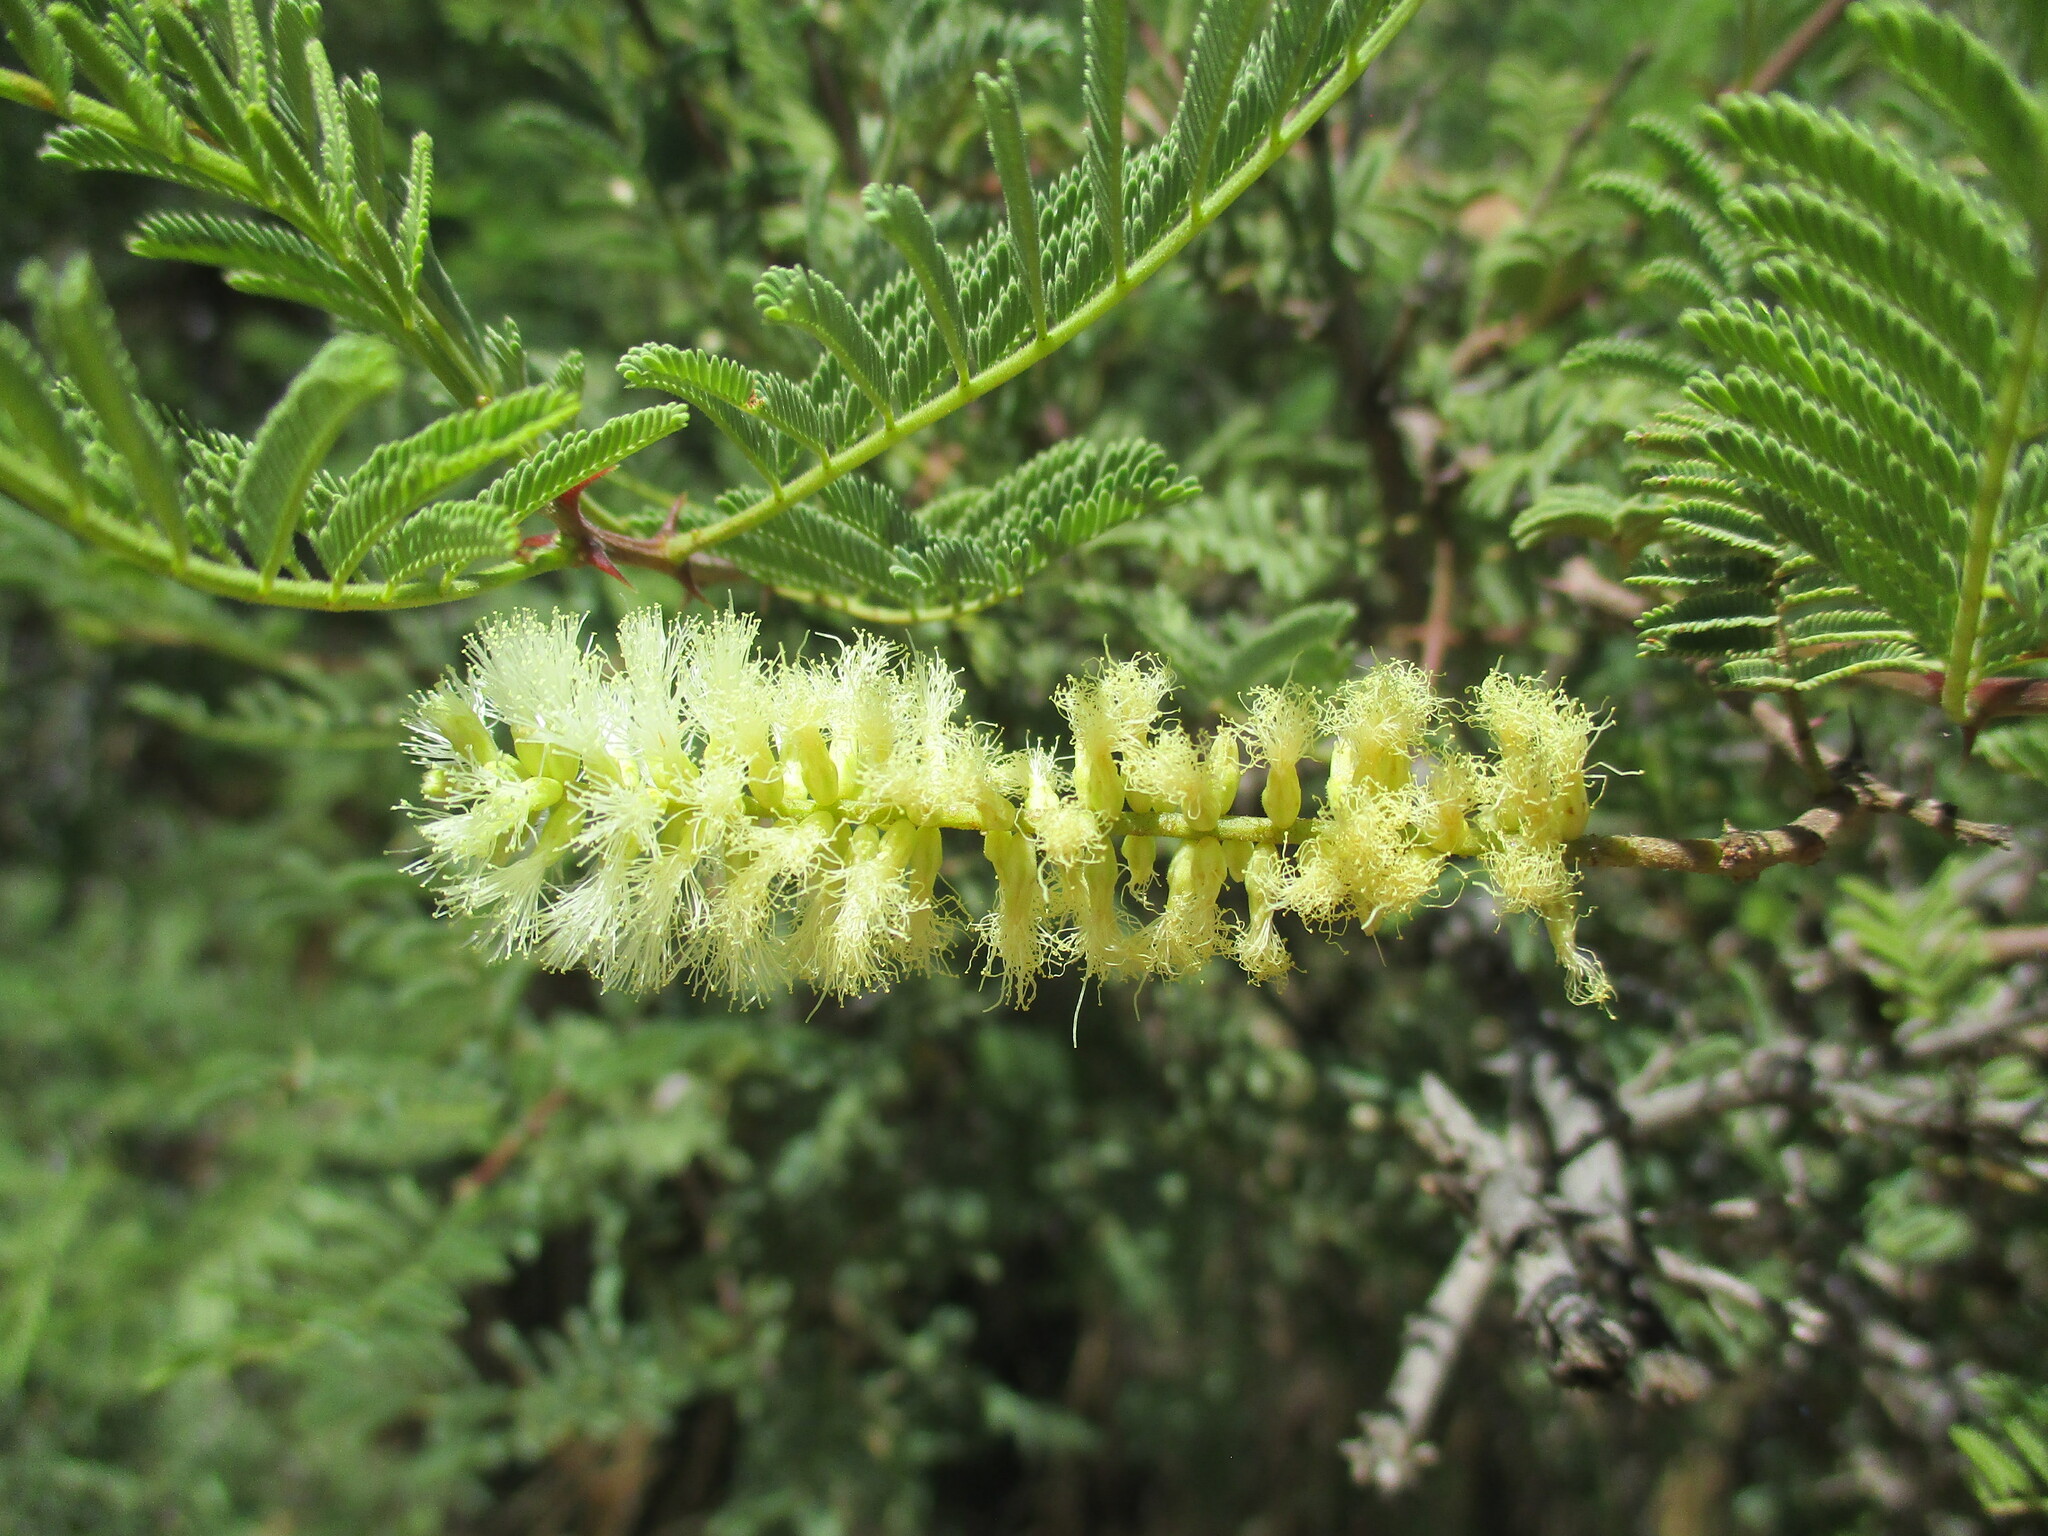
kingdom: Plantae
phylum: Tracheophyta
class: Magnoliopsida
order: Fabales
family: Fabaceae
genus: Senegalia
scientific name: Senegalia hereroensis
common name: Arid hook-thorn
